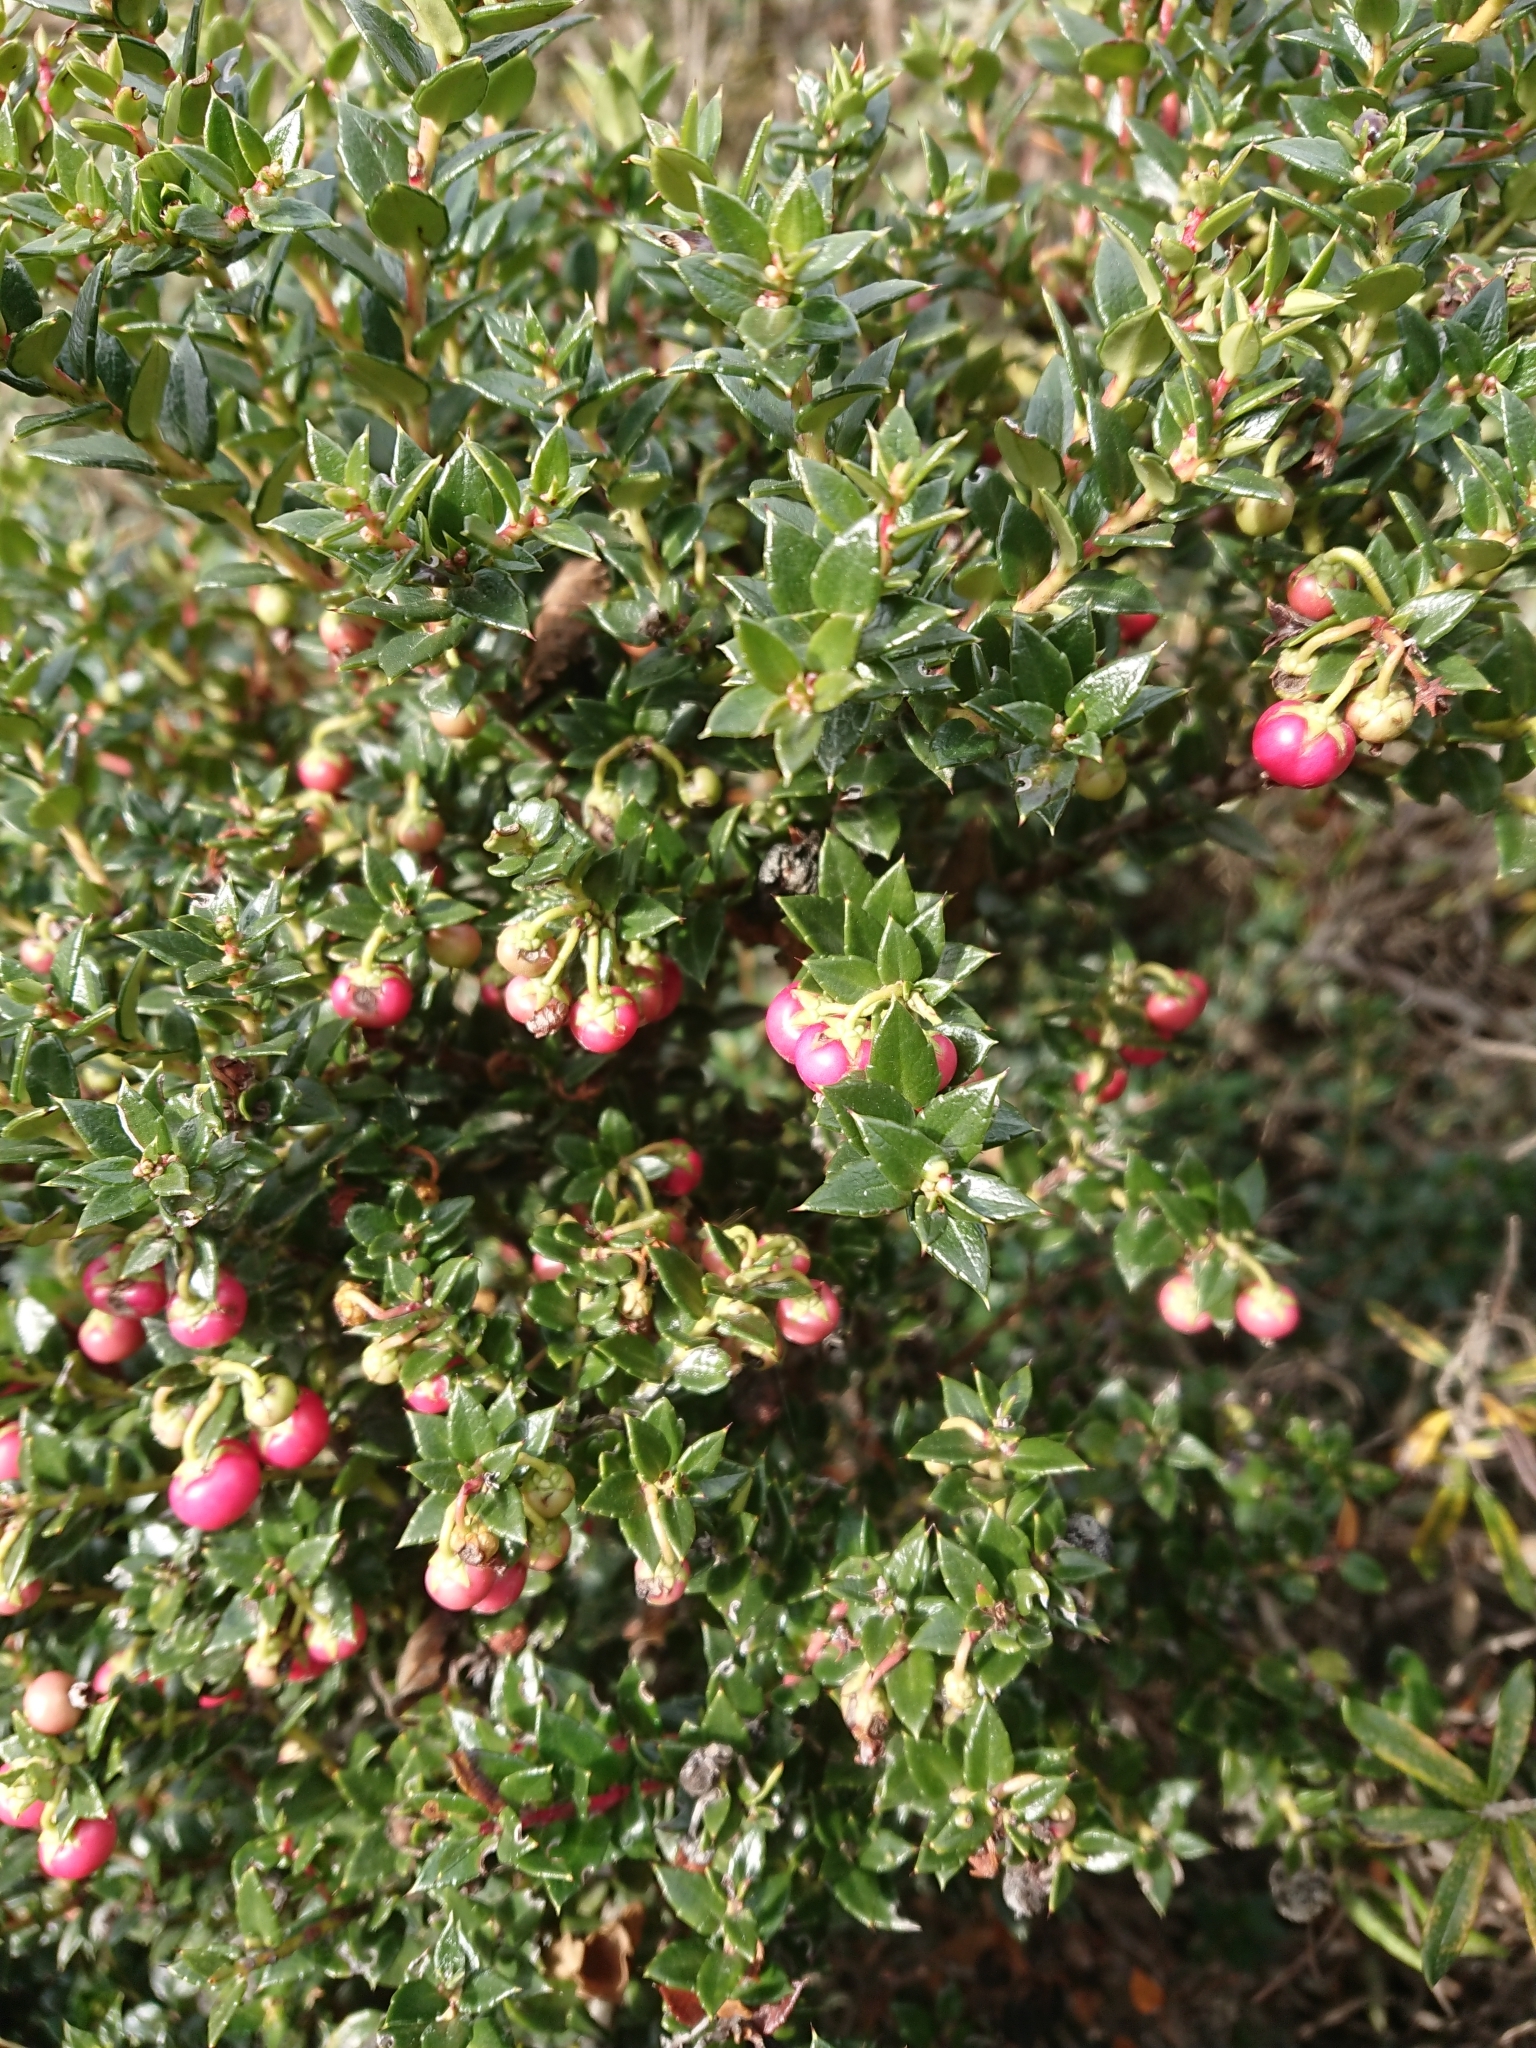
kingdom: Plantae
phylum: Tracheophyta
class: Magnoliopsida
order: Ericales
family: Ericaceae
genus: Gaultheria
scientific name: Gaultheria mucronata
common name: Prickly heath
